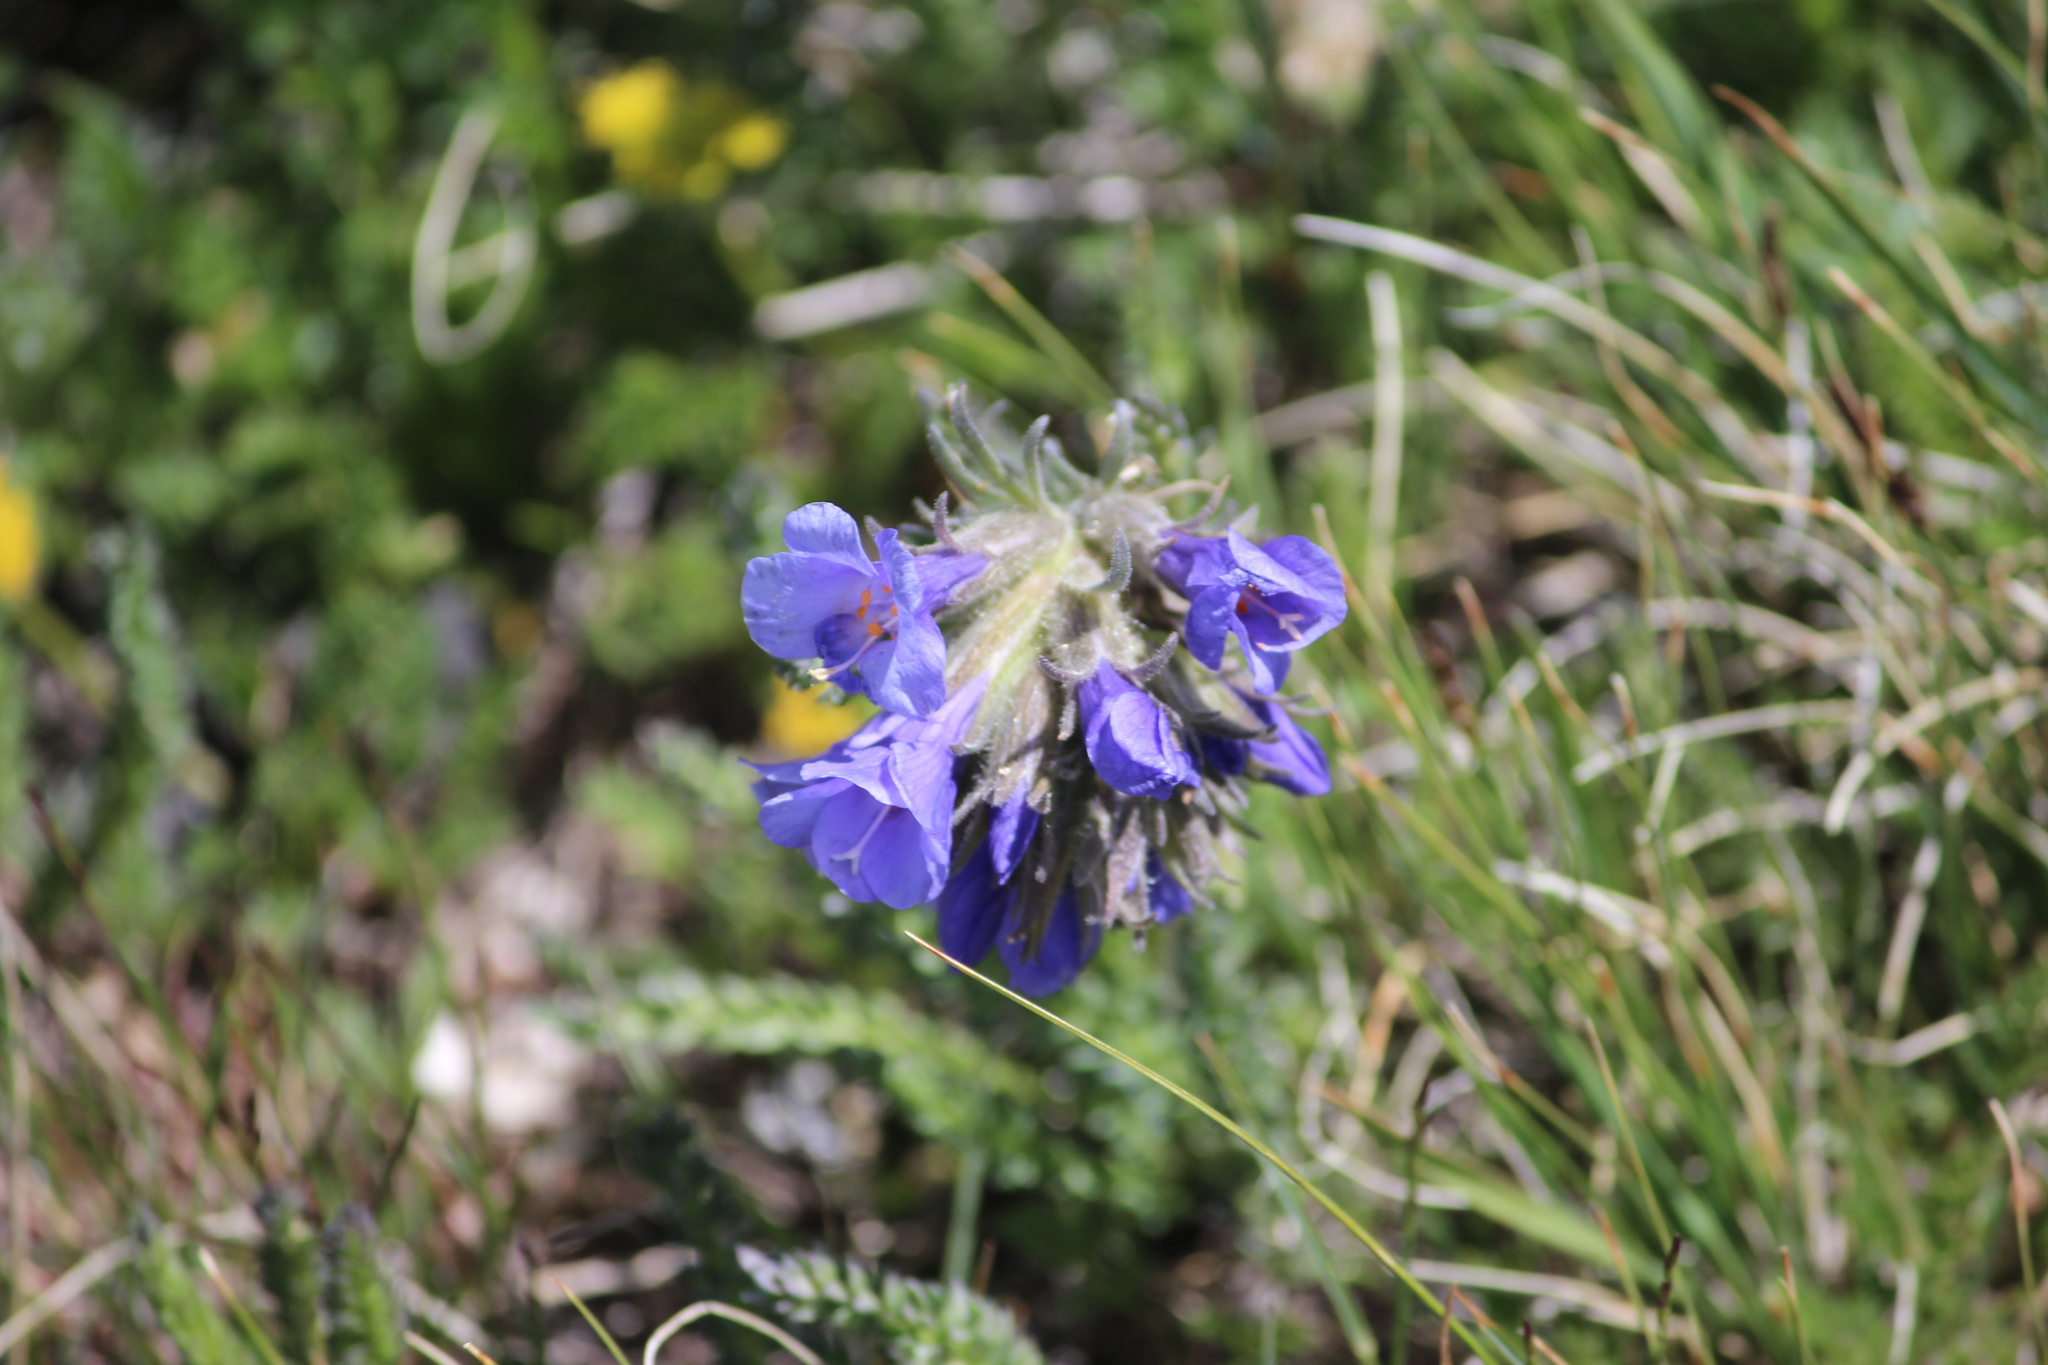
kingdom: Plantae
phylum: Tracheophyta
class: Magnoliopsida
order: Ericales
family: Polemoniaceae
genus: Polemonium
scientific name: Polemonium viscosum
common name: Skunk jacob's-ladder
